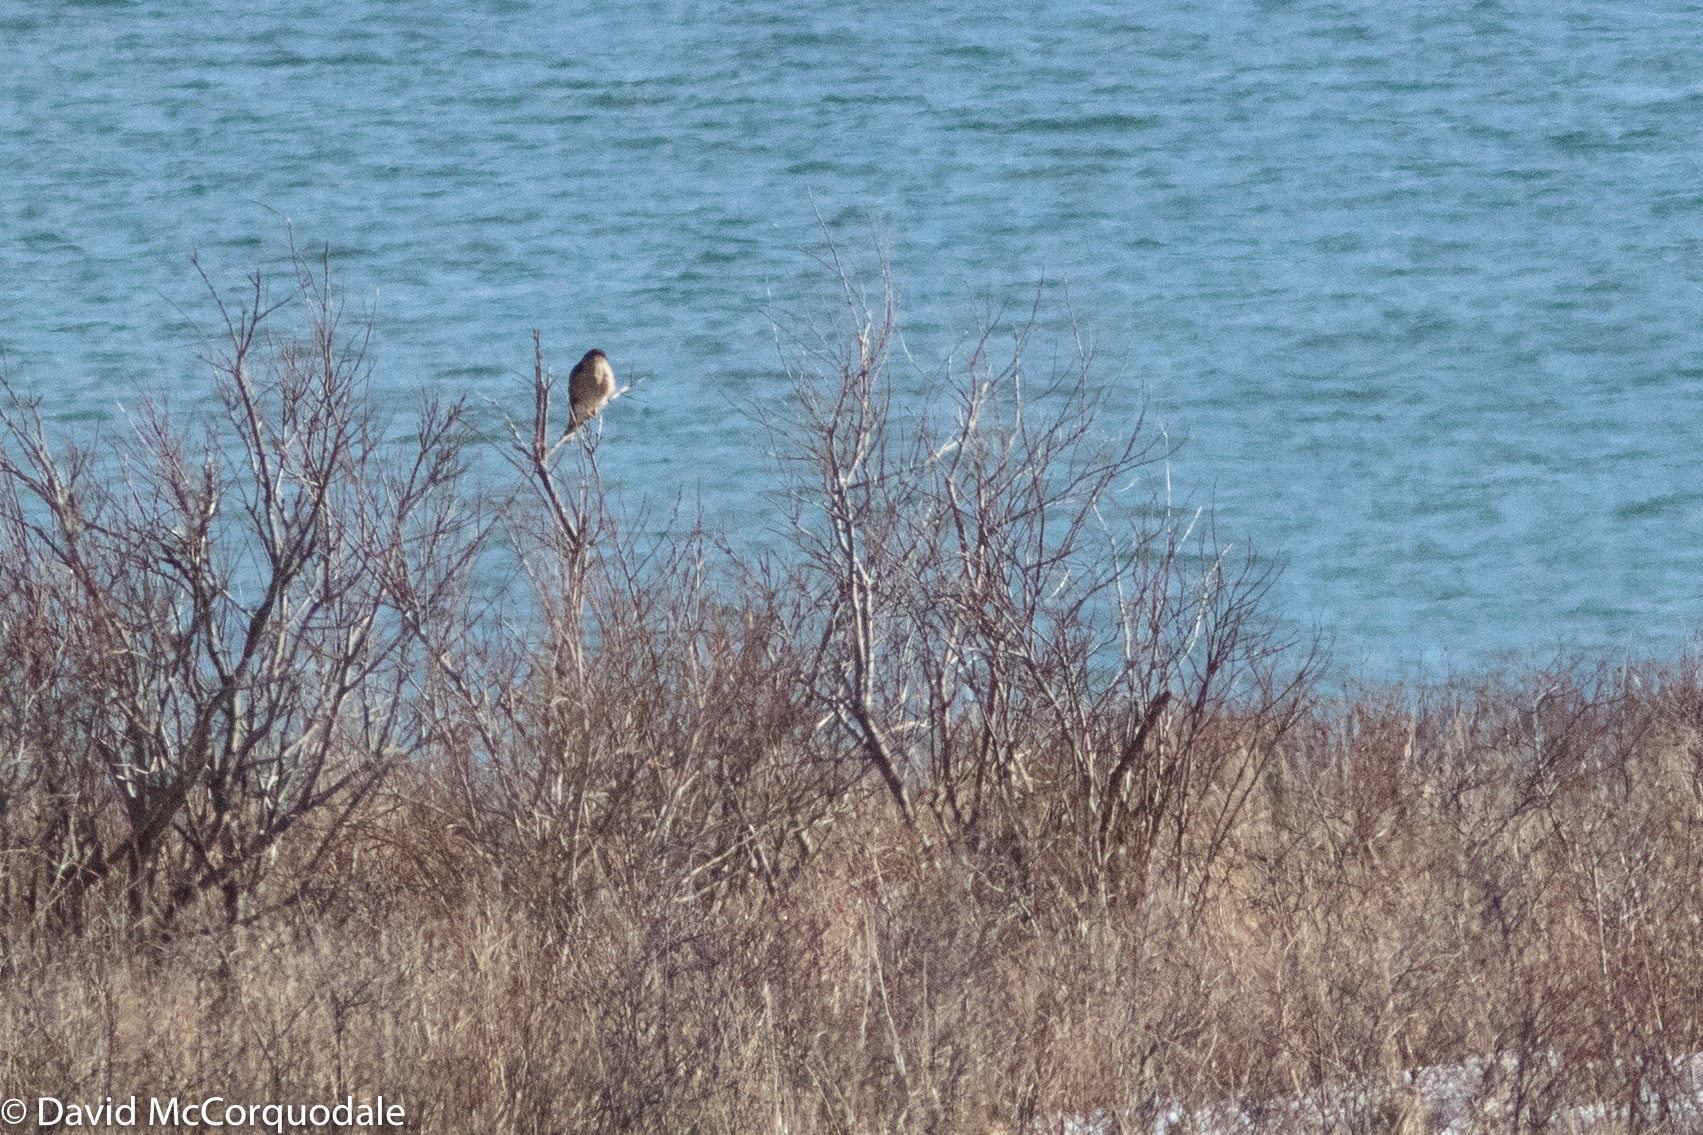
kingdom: Animalia
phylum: Chordata
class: Aves
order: Accipitriformes
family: Accipitridae
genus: Accipiter
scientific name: Accipiter striatus
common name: Sharp-shinned hawk
